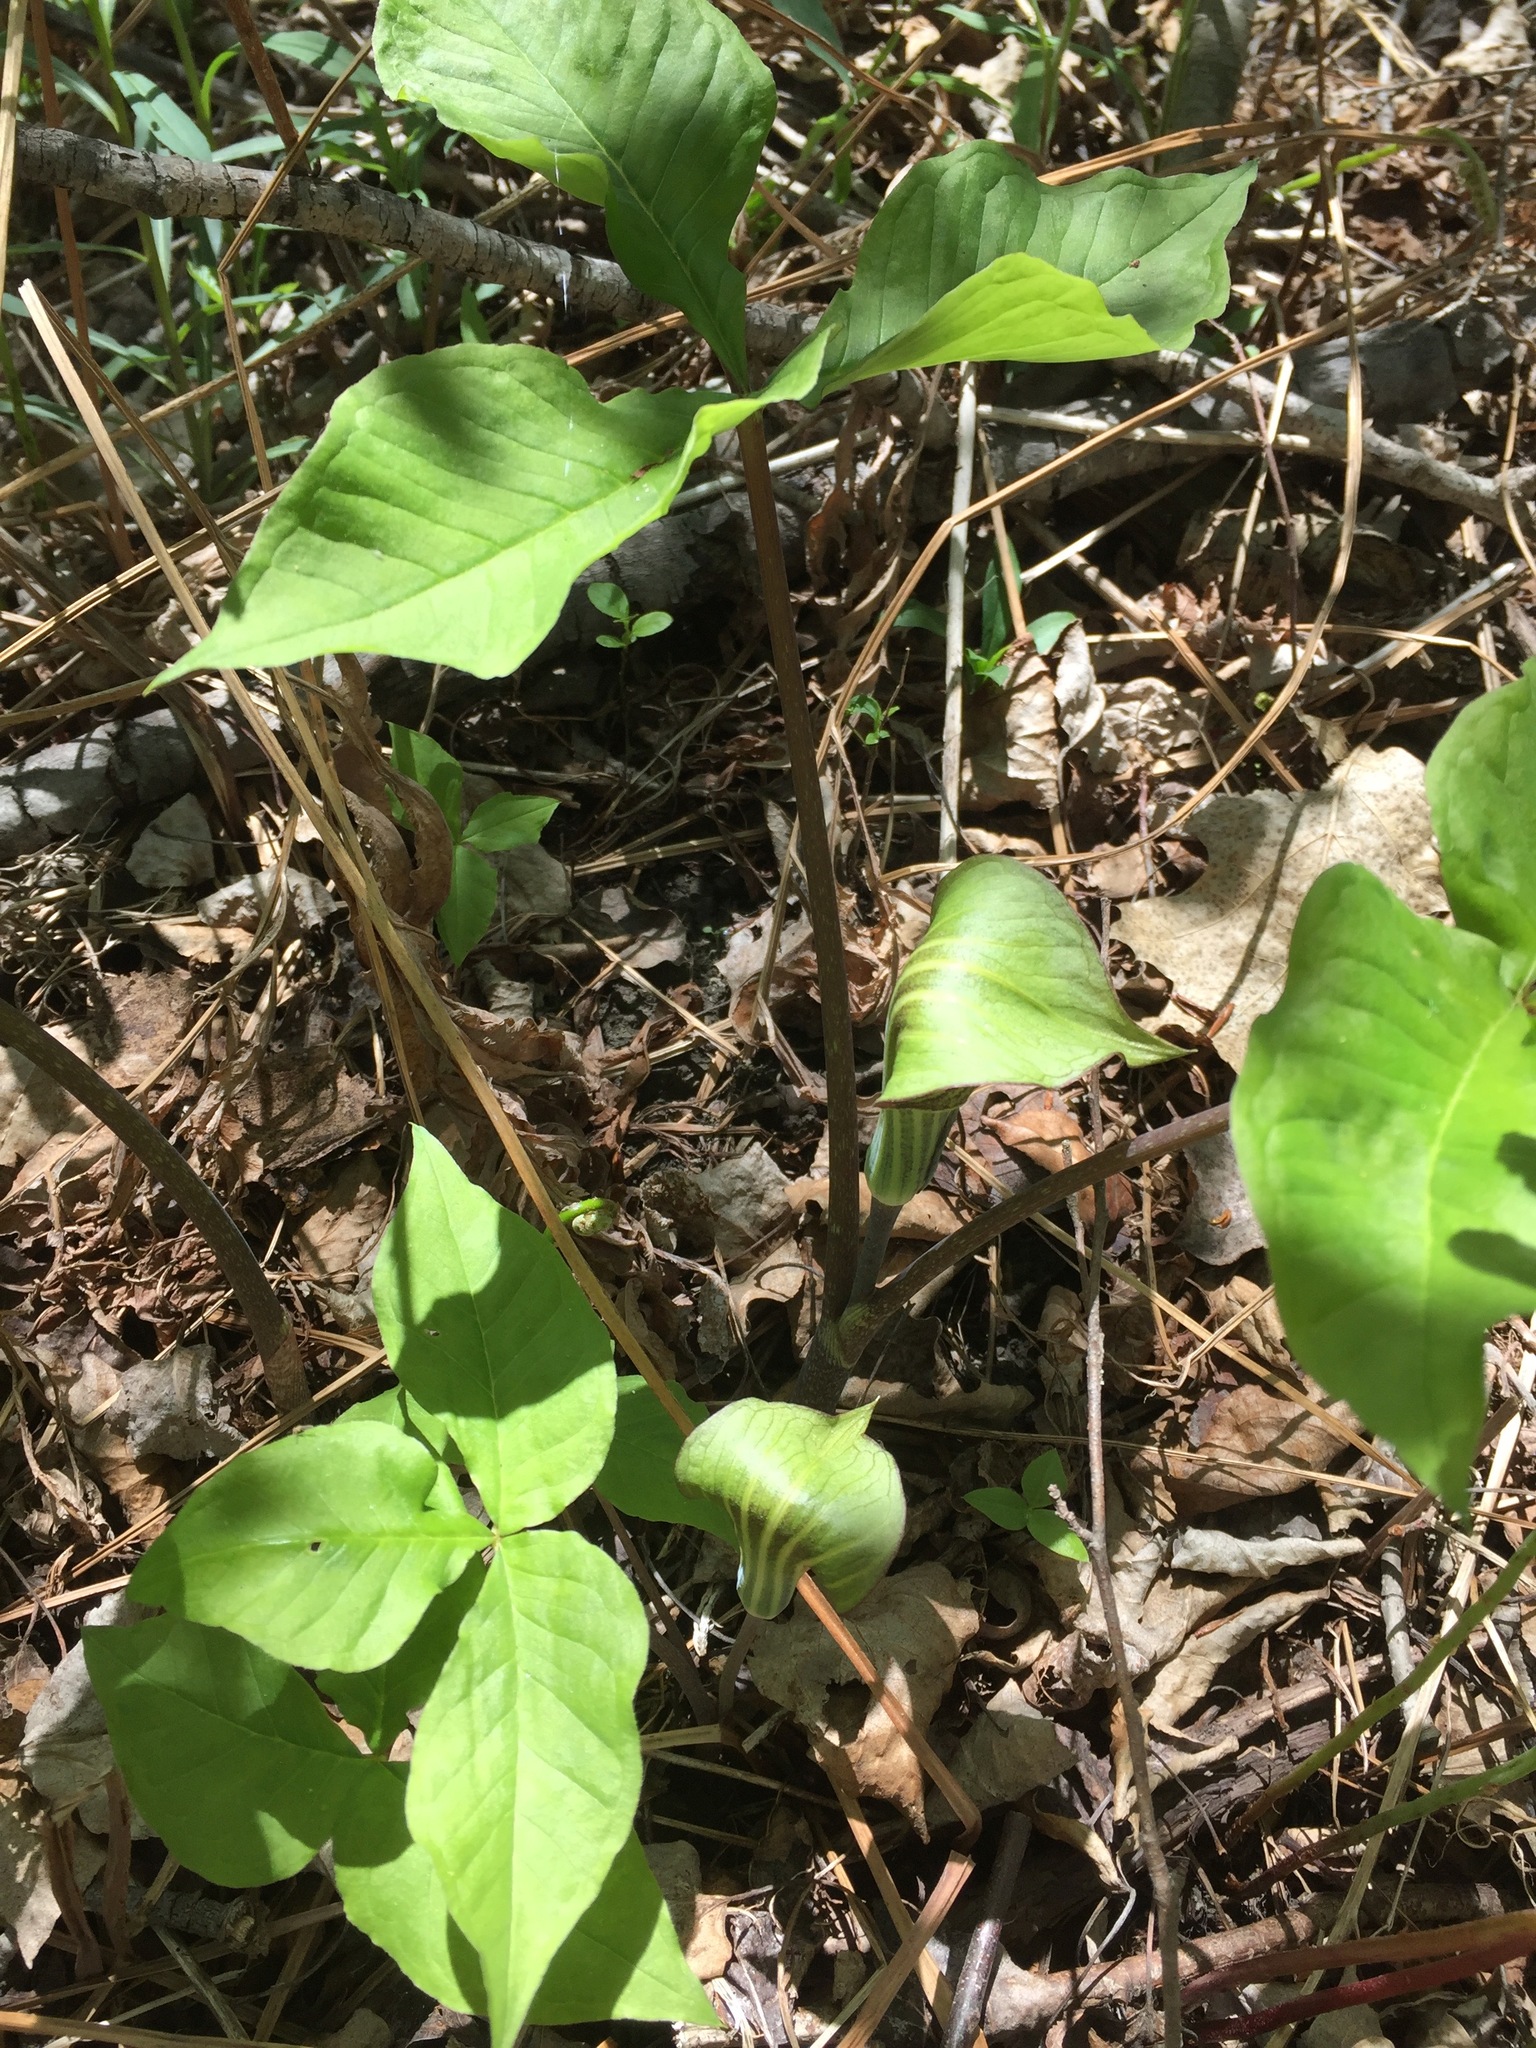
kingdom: Plantae
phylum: Tracheophyta
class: Liliopsida
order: Alismatales
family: Araceae
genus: Arisaema
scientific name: Arisaema triphyllum
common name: Jack-in-the-pulpit
